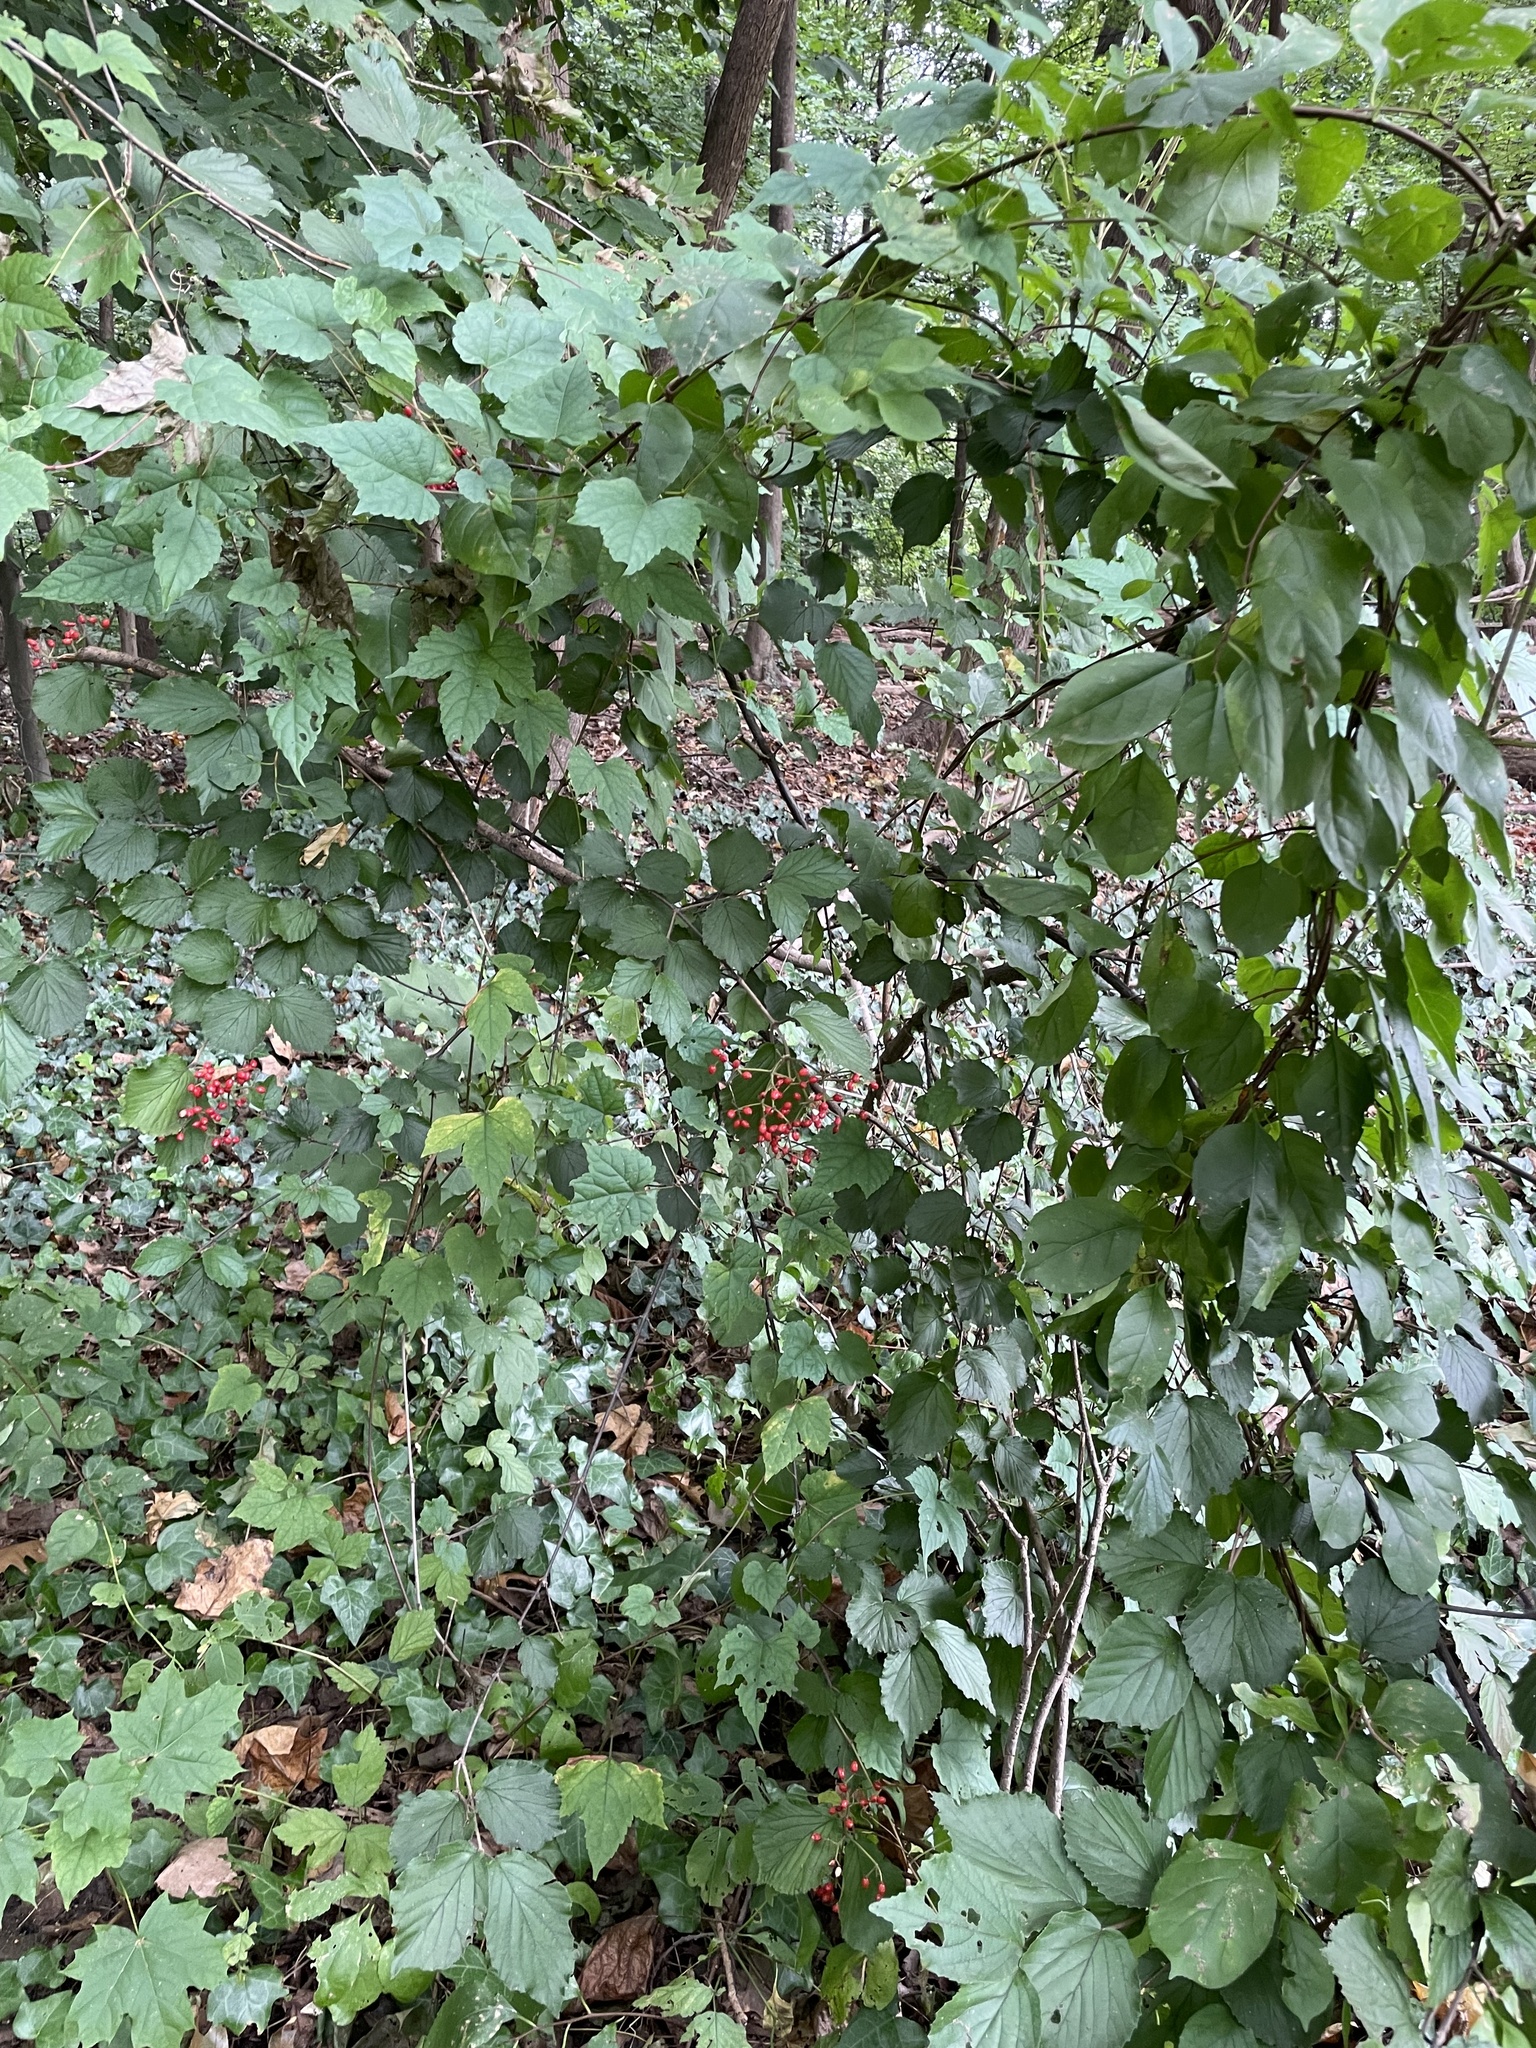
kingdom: Plantae
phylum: Tracheophyta
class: Magnoliopsida
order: Dipsacales
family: Viburnaceae
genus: Viburnum
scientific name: Viburnum dilatatum
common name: Linden arrowwood
